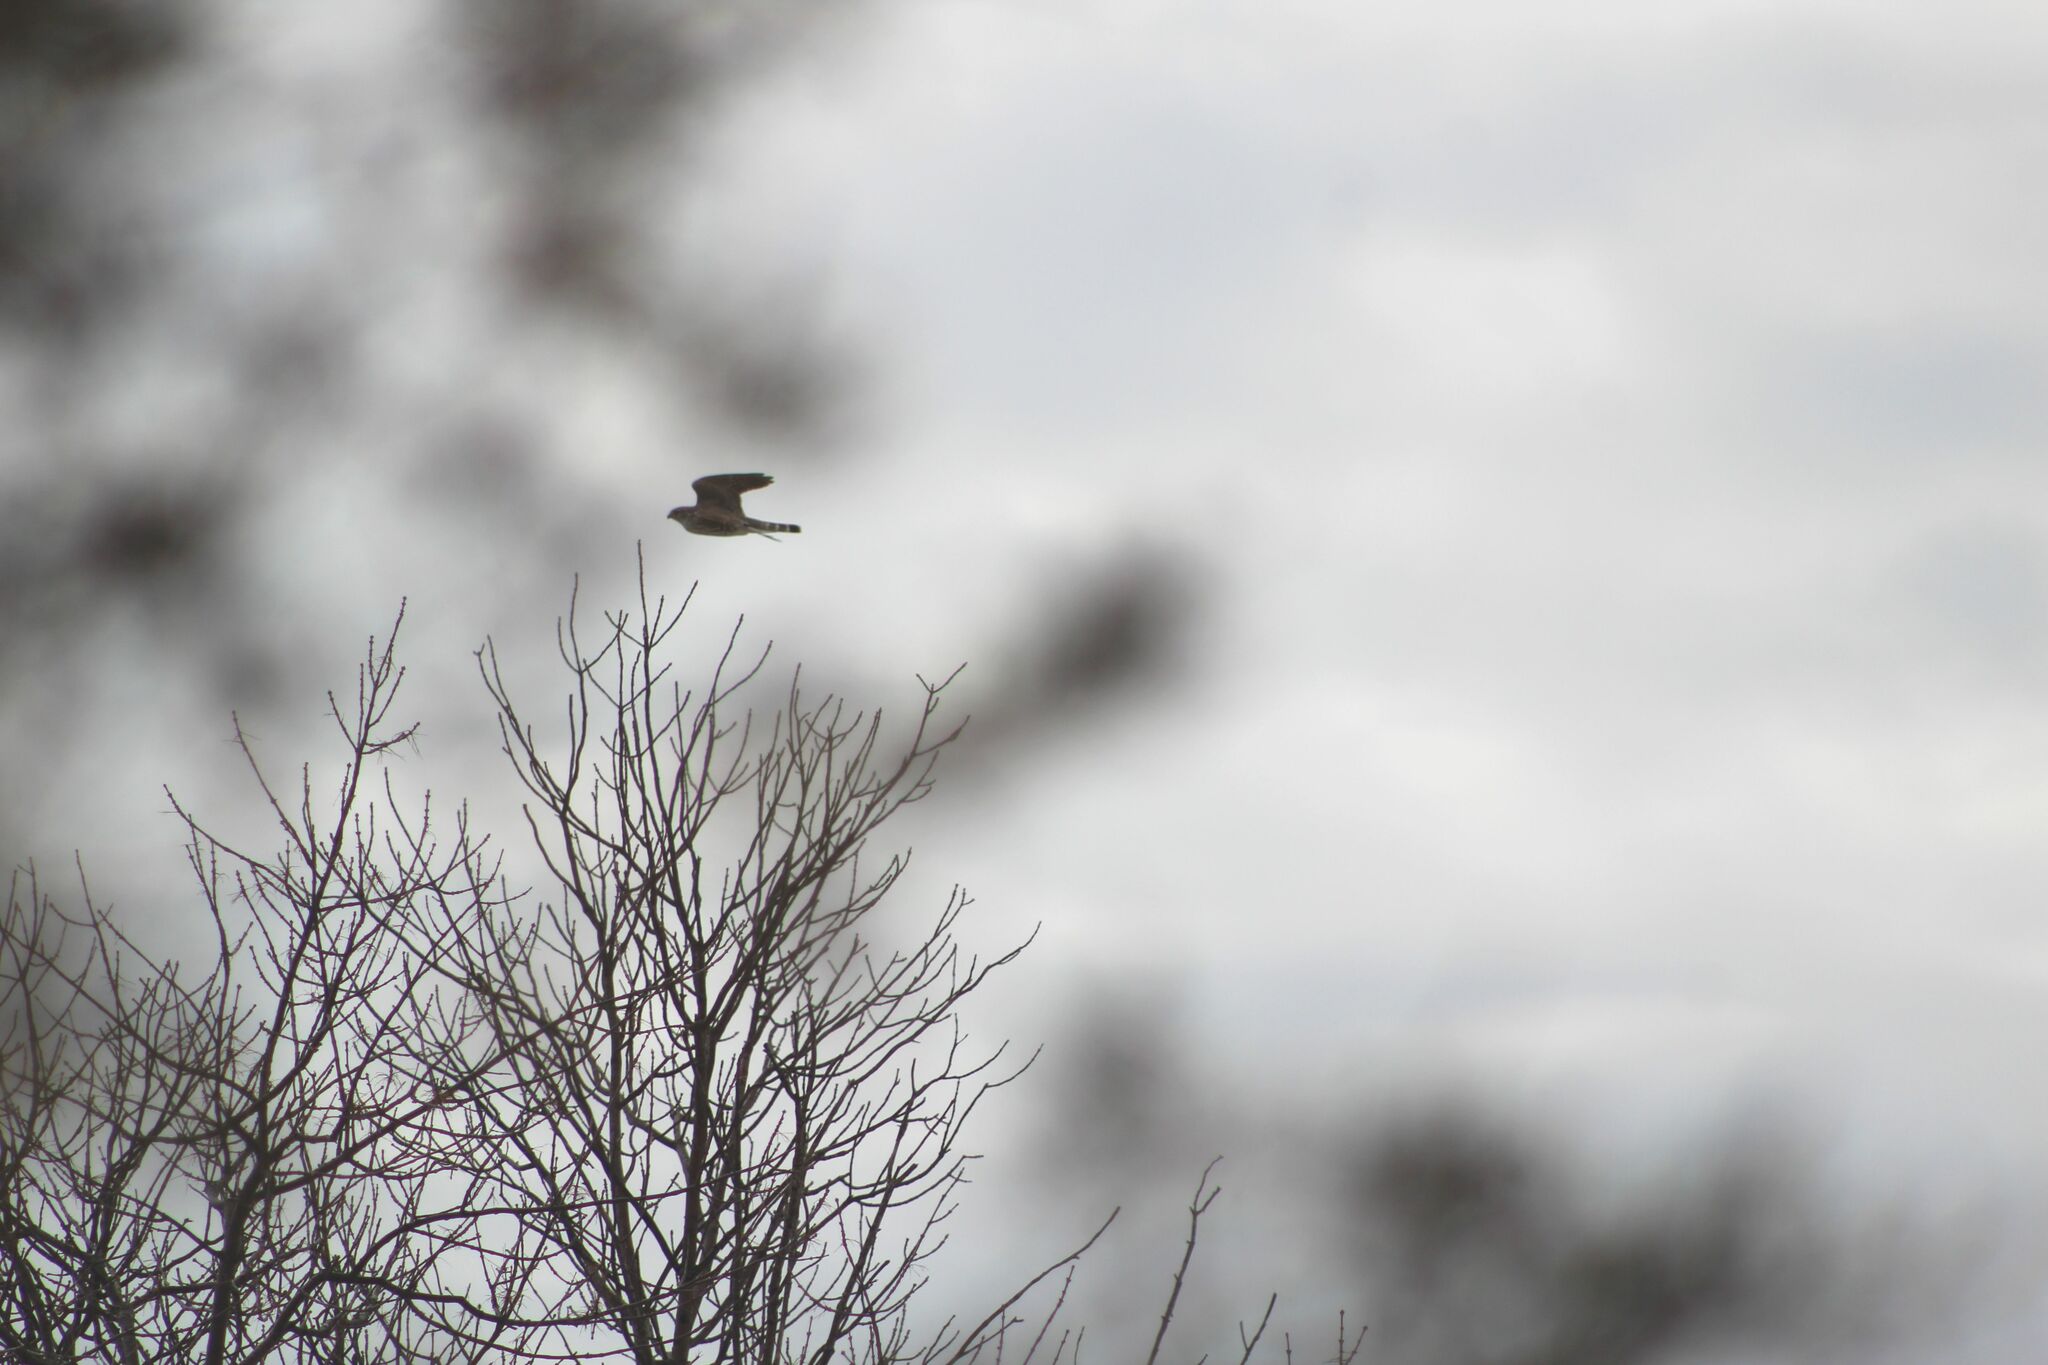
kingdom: Animalia
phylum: Chordata
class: Aves
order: Falconiformes
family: Falconidae
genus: Falco
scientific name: Falco columbarius
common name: Merlin
